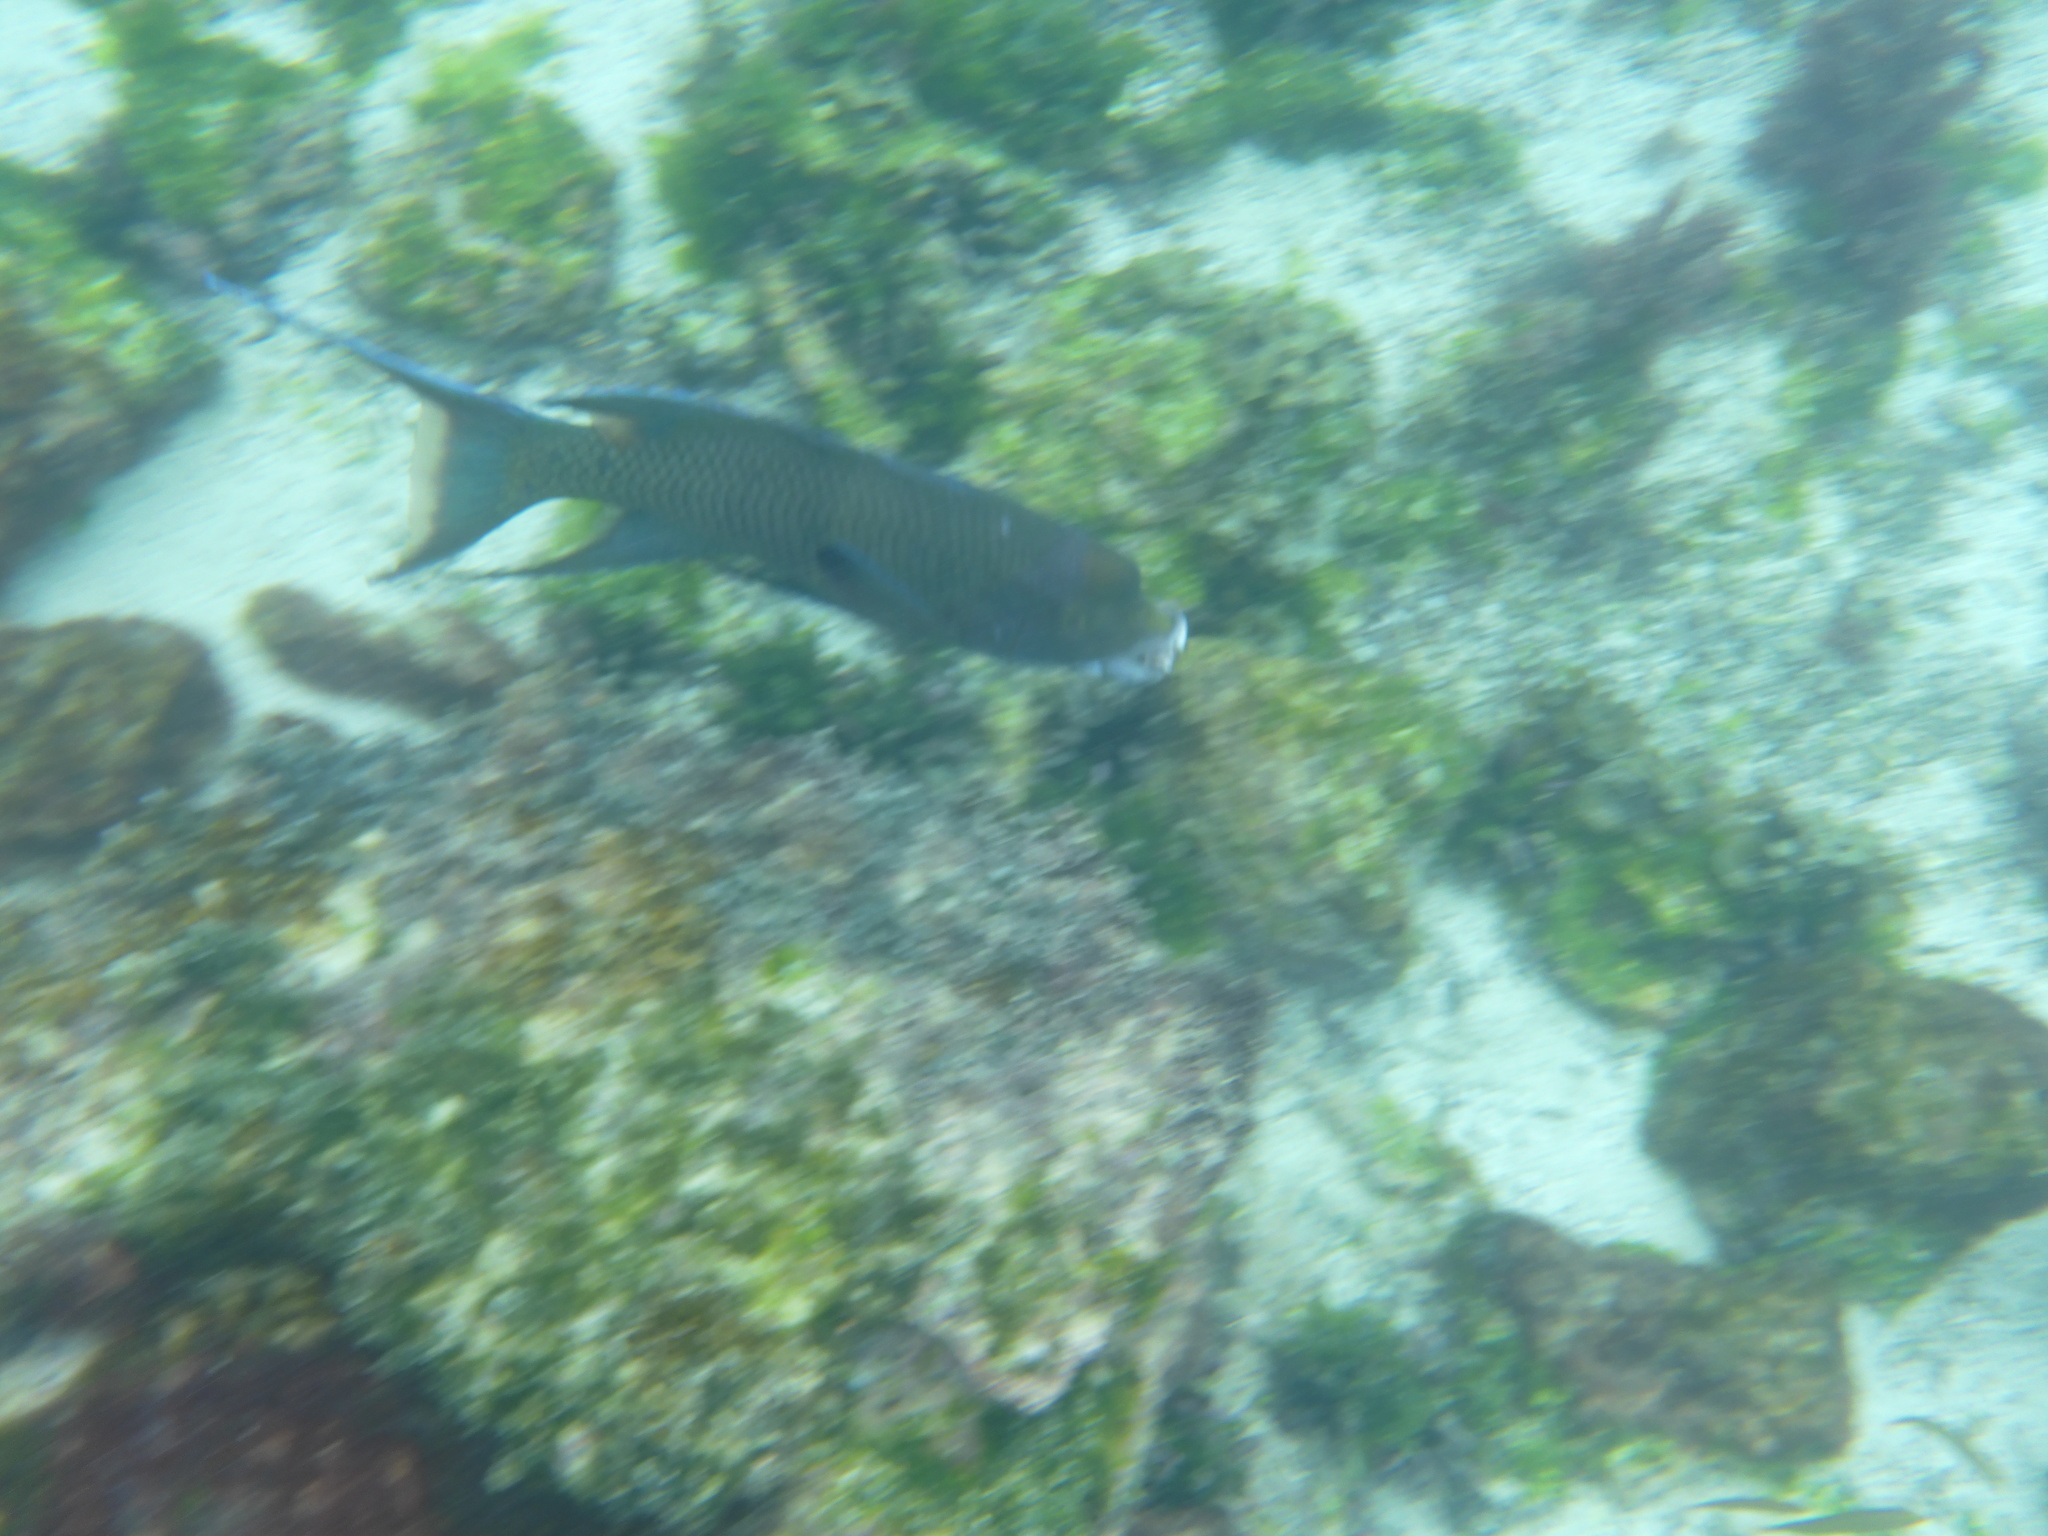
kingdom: Animalia
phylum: Chordata
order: Perciformes
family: Labridae
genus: Bodianus
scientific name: Bodianus diplotaenia
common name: Mexican hogfish
